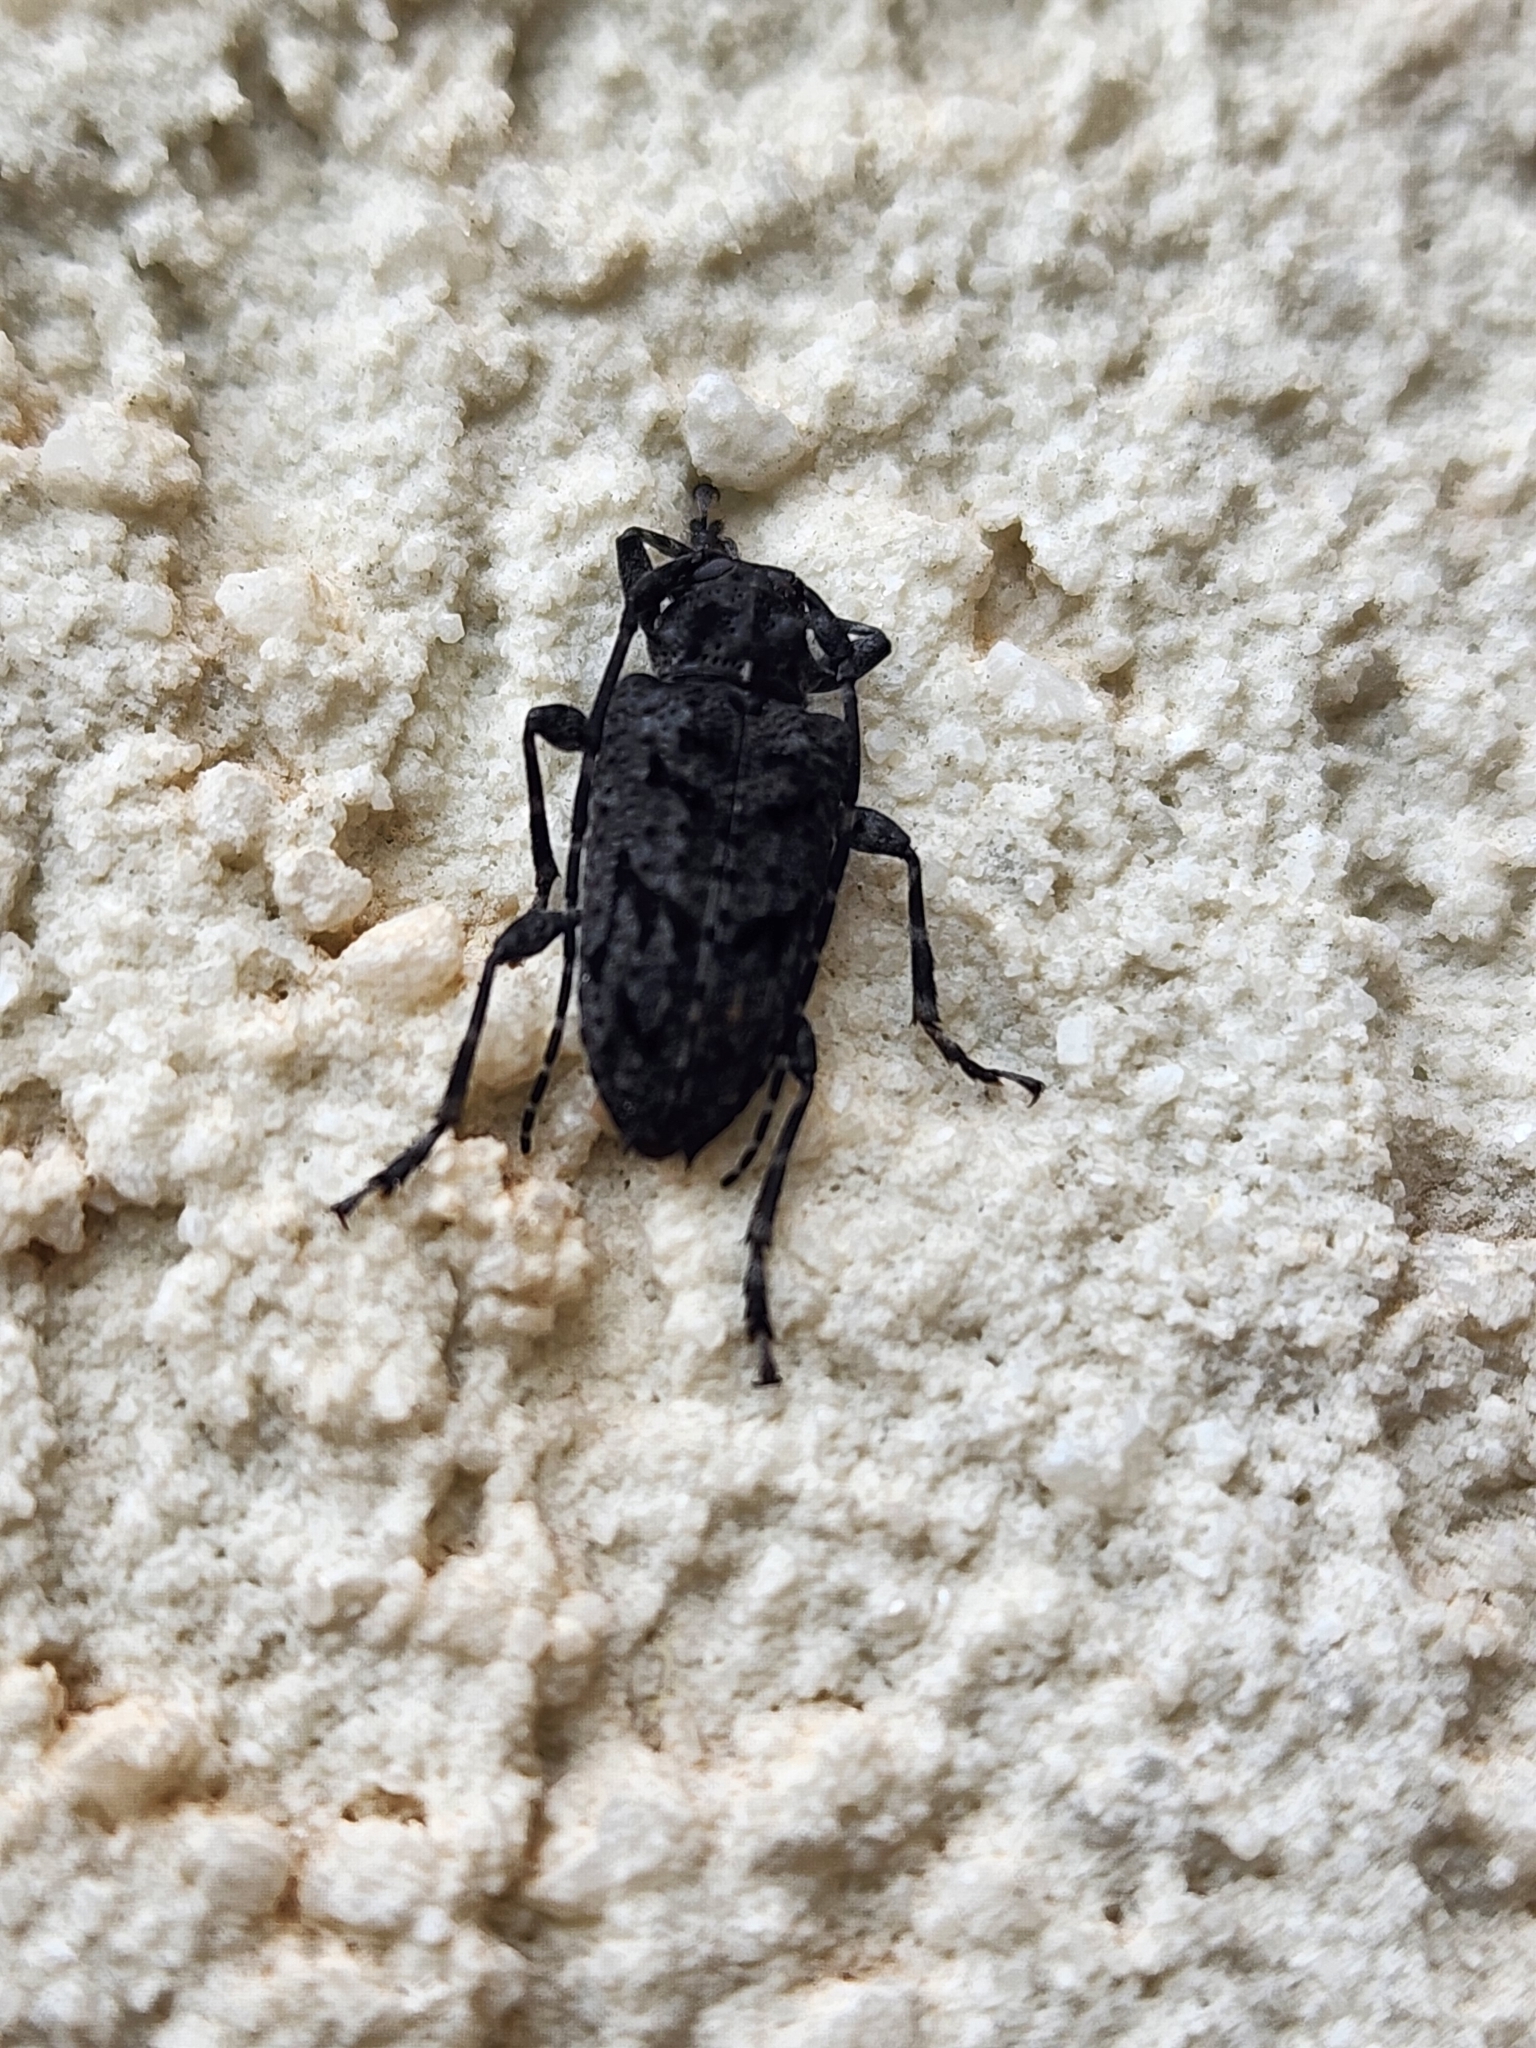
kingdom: Animalia
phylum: Arthropoda
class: Insecta
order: Coleoptera
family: Cerambycidae
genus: Psapharochrus
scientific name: Psapharochrus nigricans
